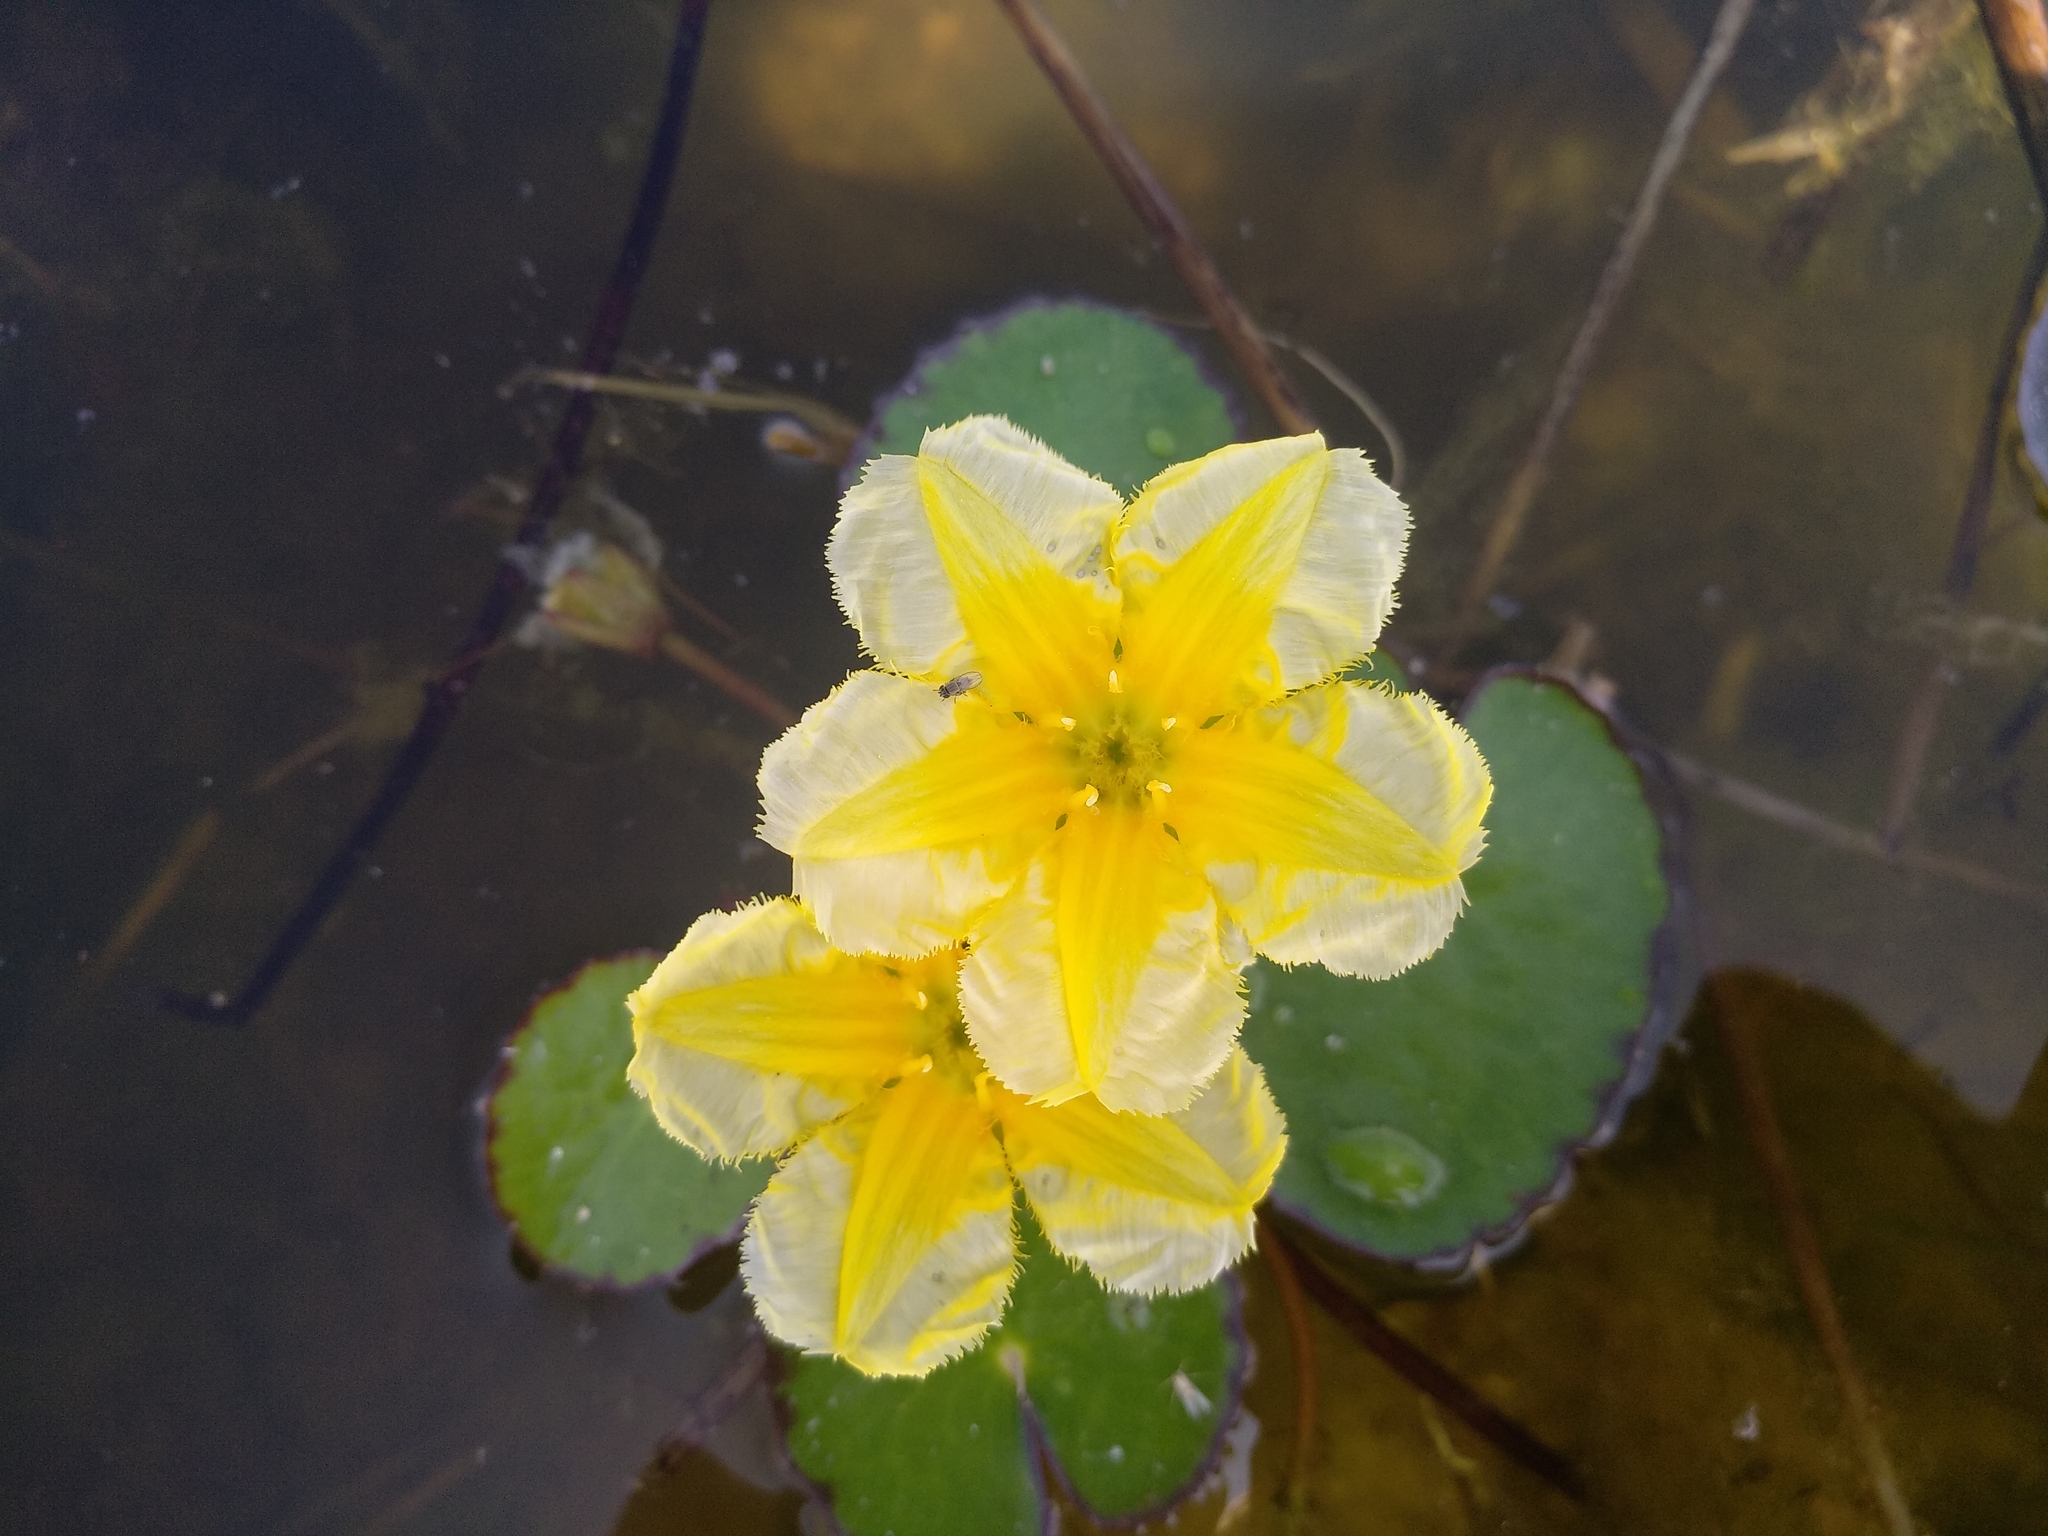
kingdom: Plantae
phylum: Tracheophyta
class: Magnoliopsida
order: Asterales
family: Menyanthaceae
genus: Nymphoides
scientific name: Nymphoides peltata
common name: Fringed water-lily
